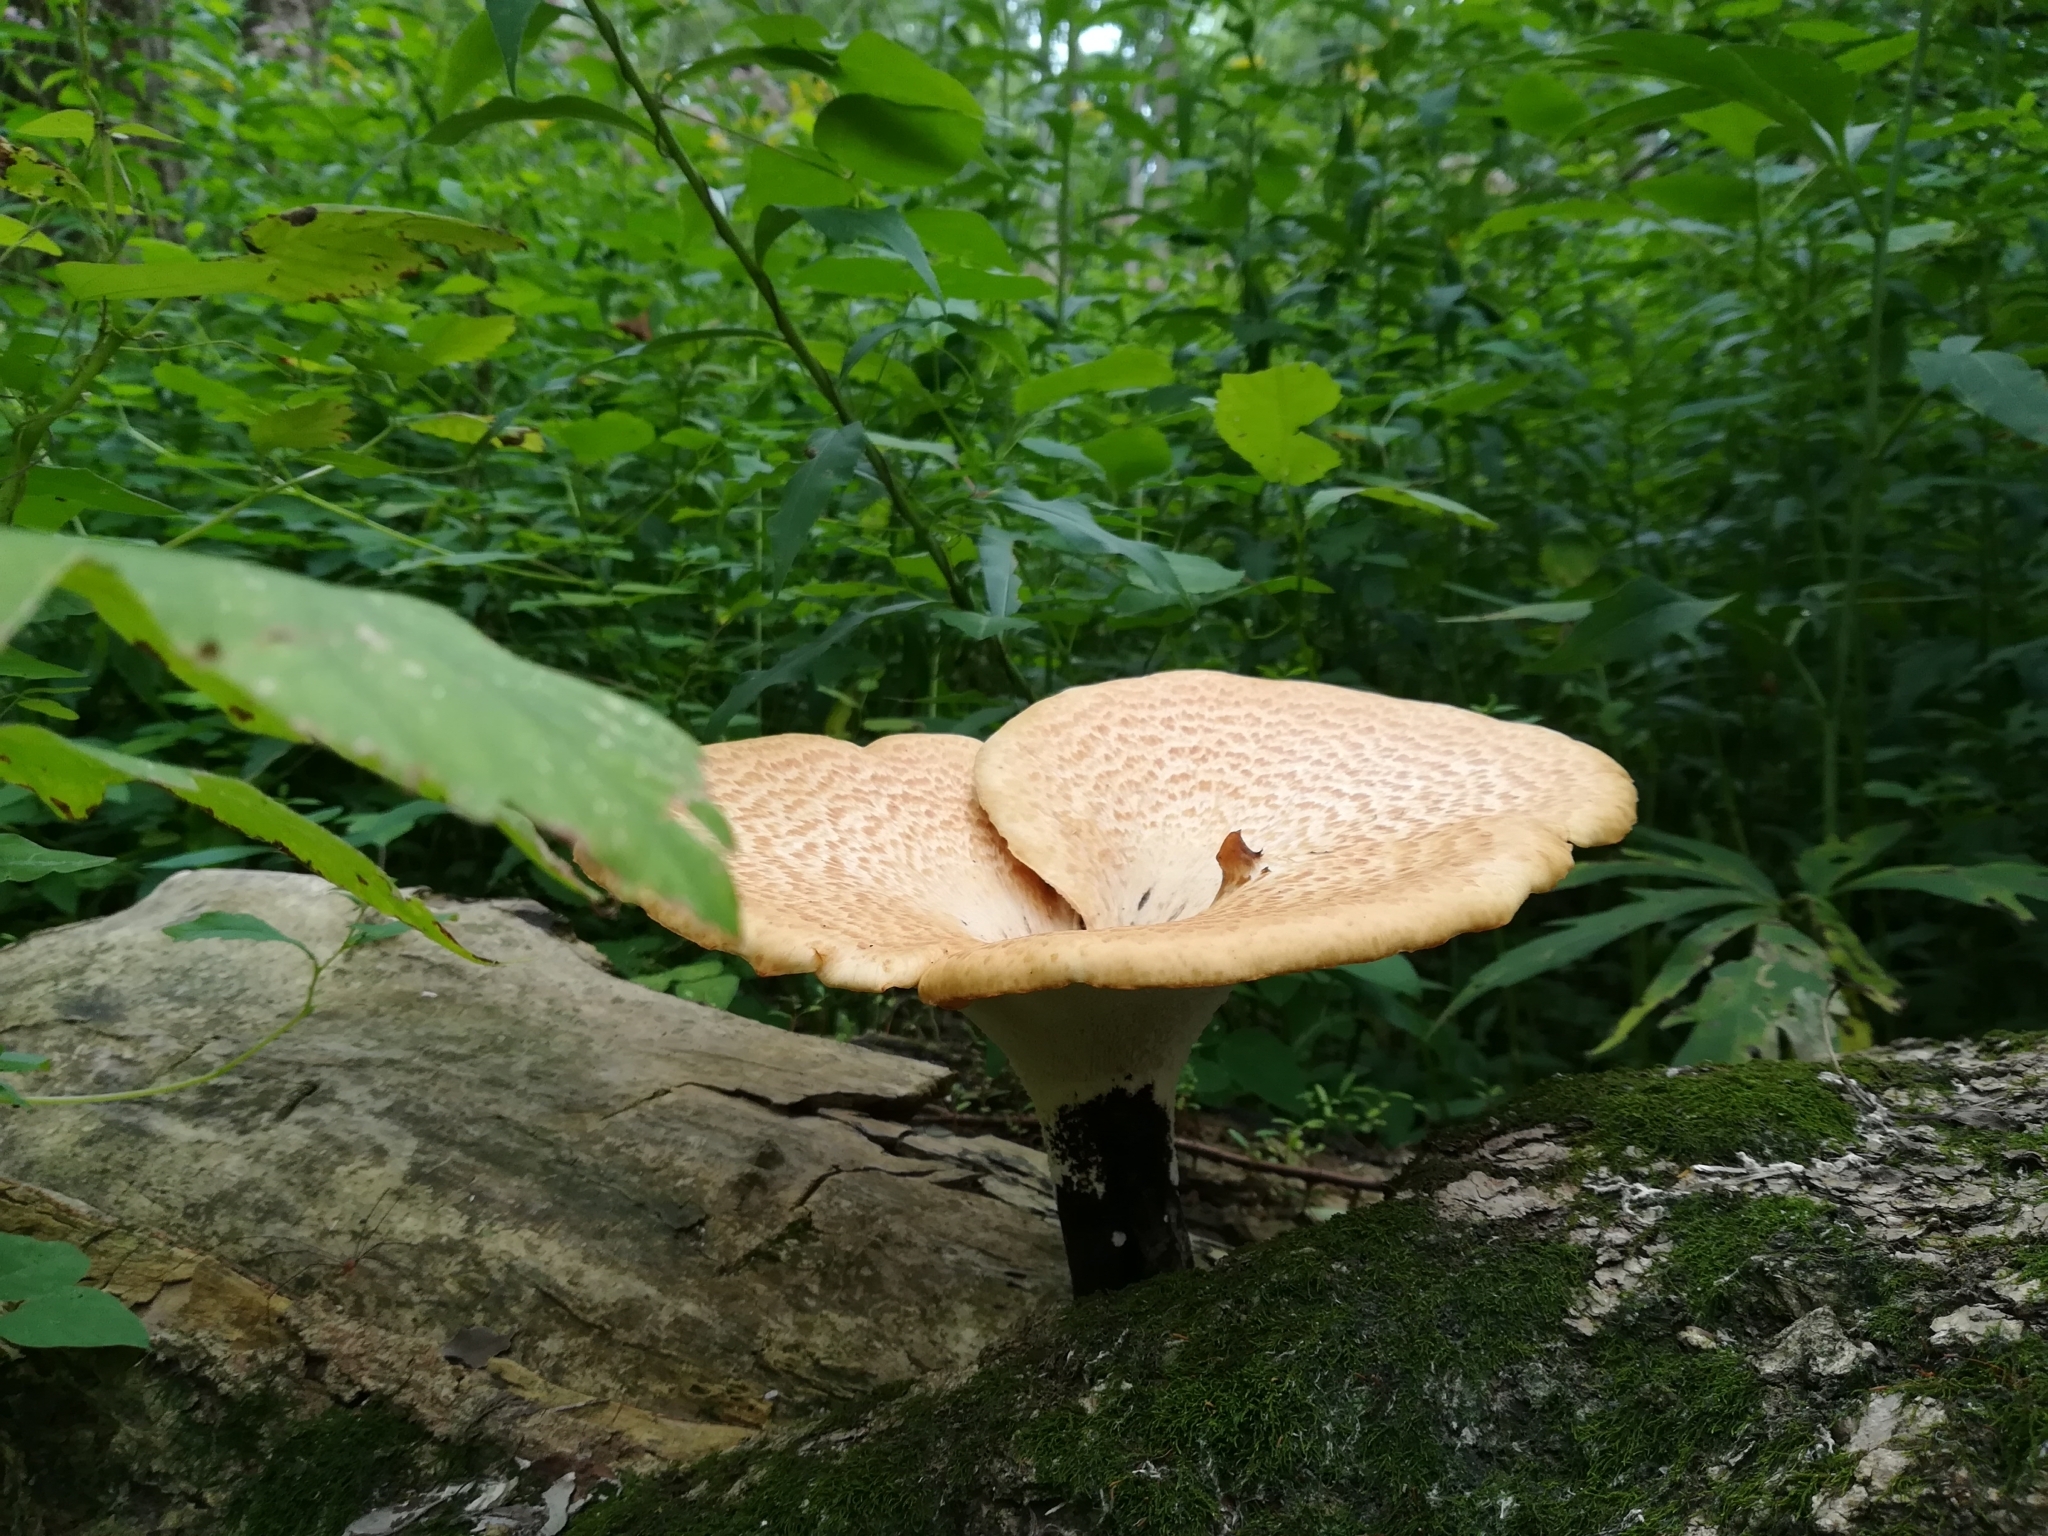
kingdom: Fungi
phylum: Basidiomycota
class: Agaricomycetes
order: Polyporales
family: Polyporaceae
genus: Cerioporus
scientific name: Cerioporus squamosus
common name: Dryad's saddle
